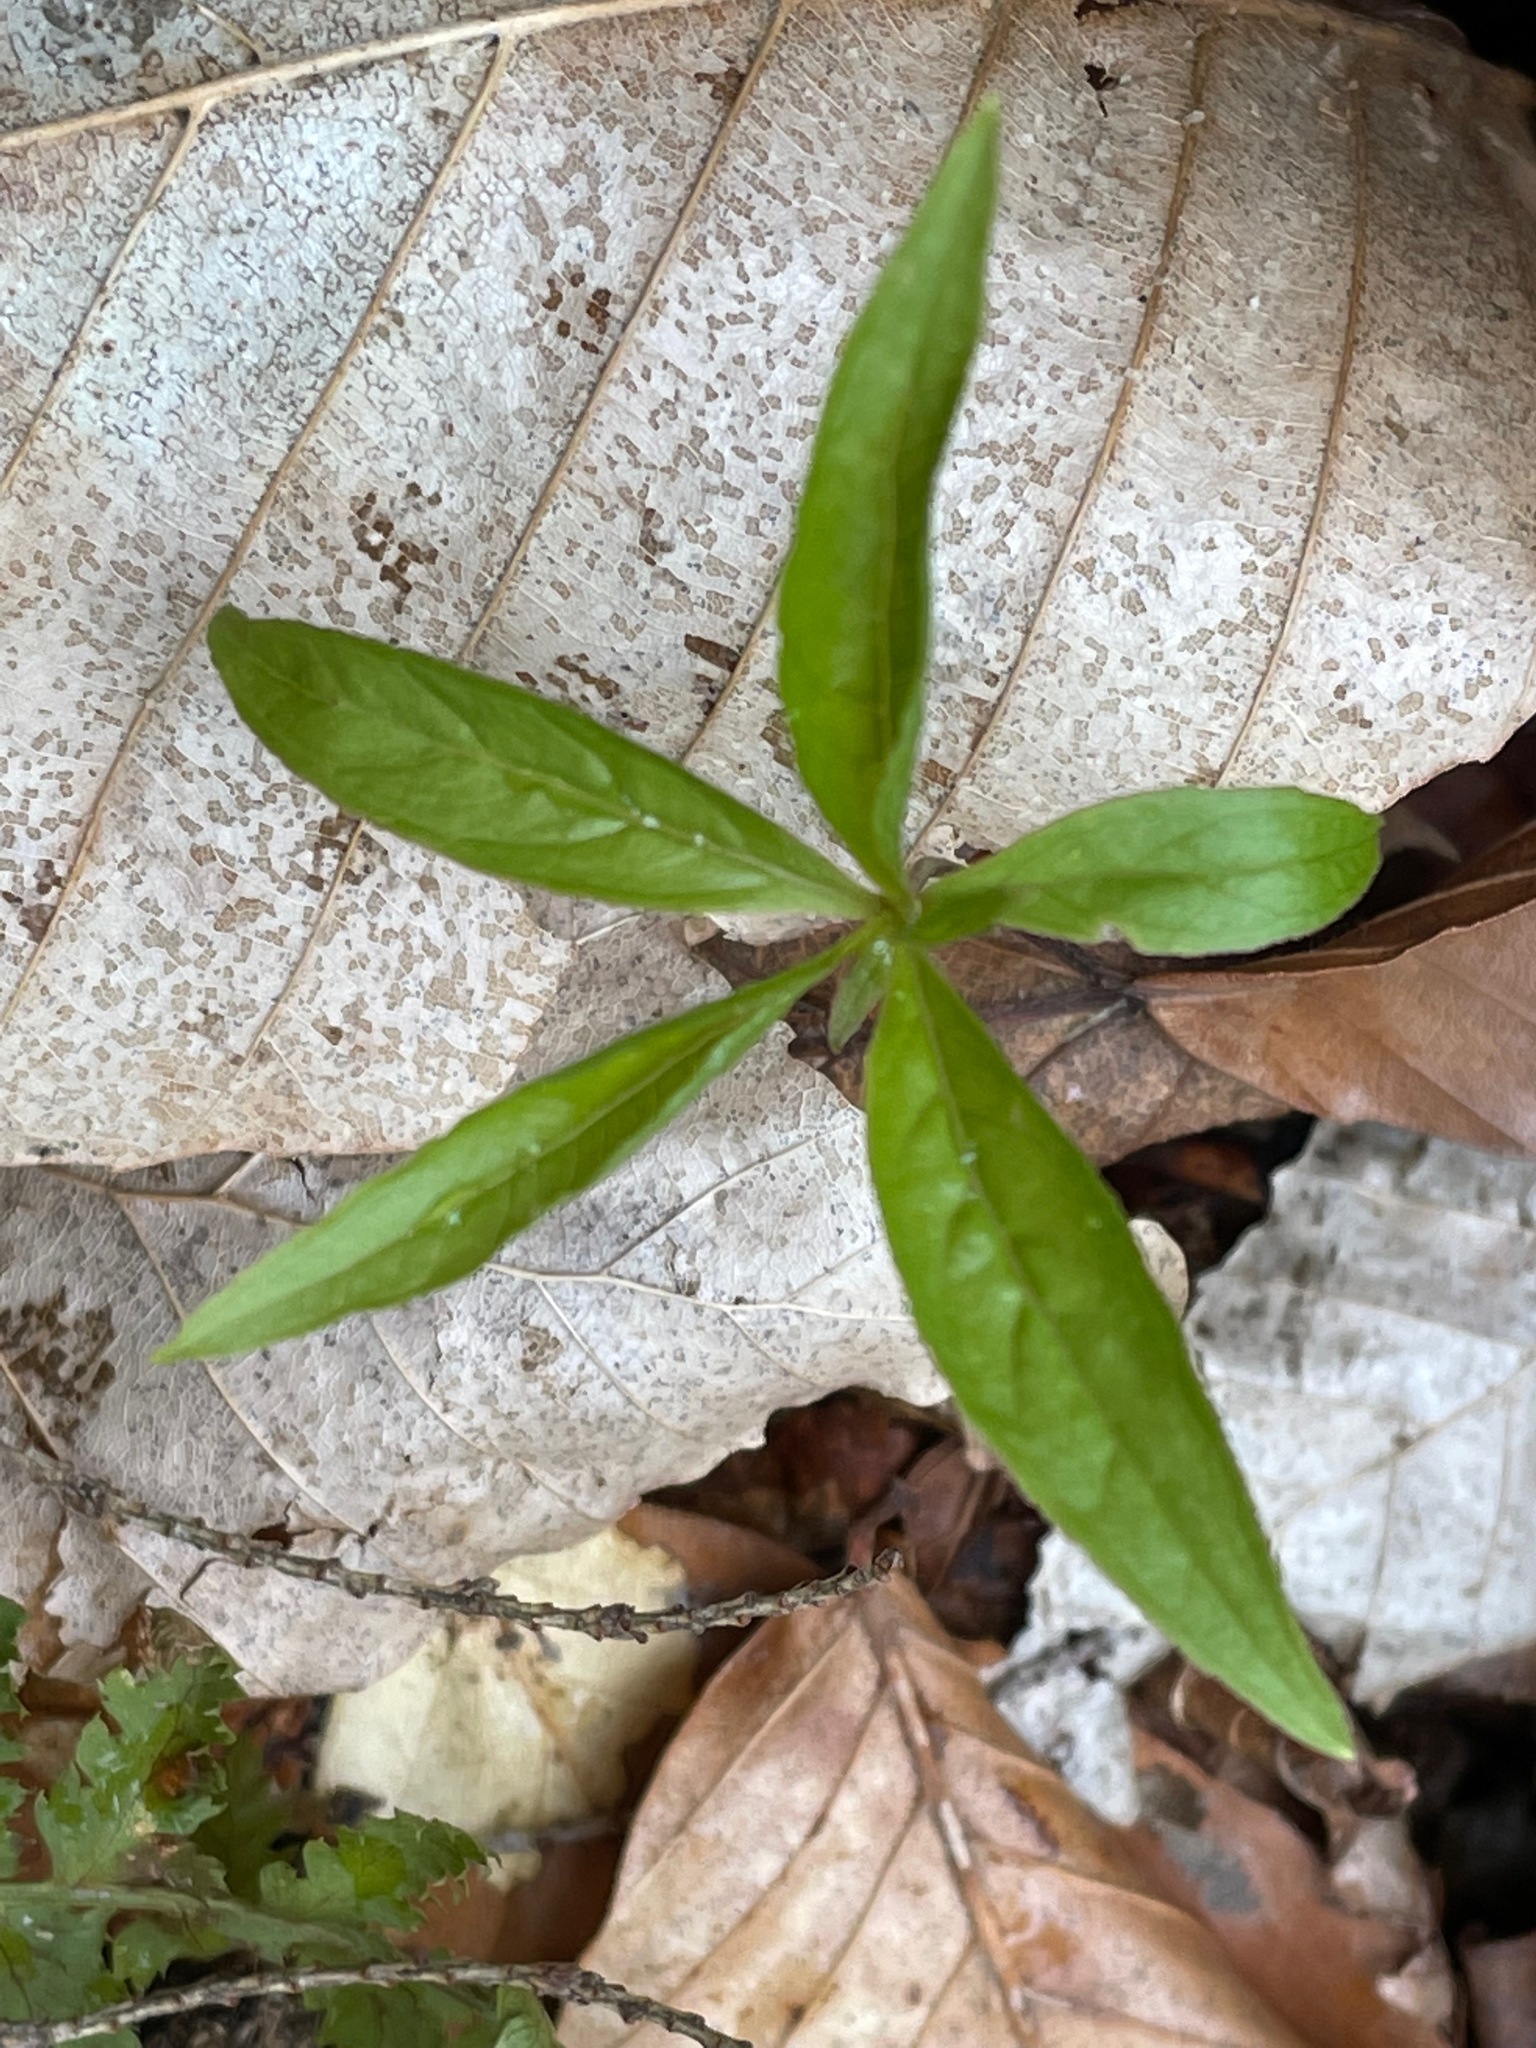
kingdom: Plantae
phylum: Tracheophyta
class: Magnoliopsida
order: Ericales
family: Primulaceae
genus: Lysimachia
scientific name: Lysimachia borealis
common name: American starflower
